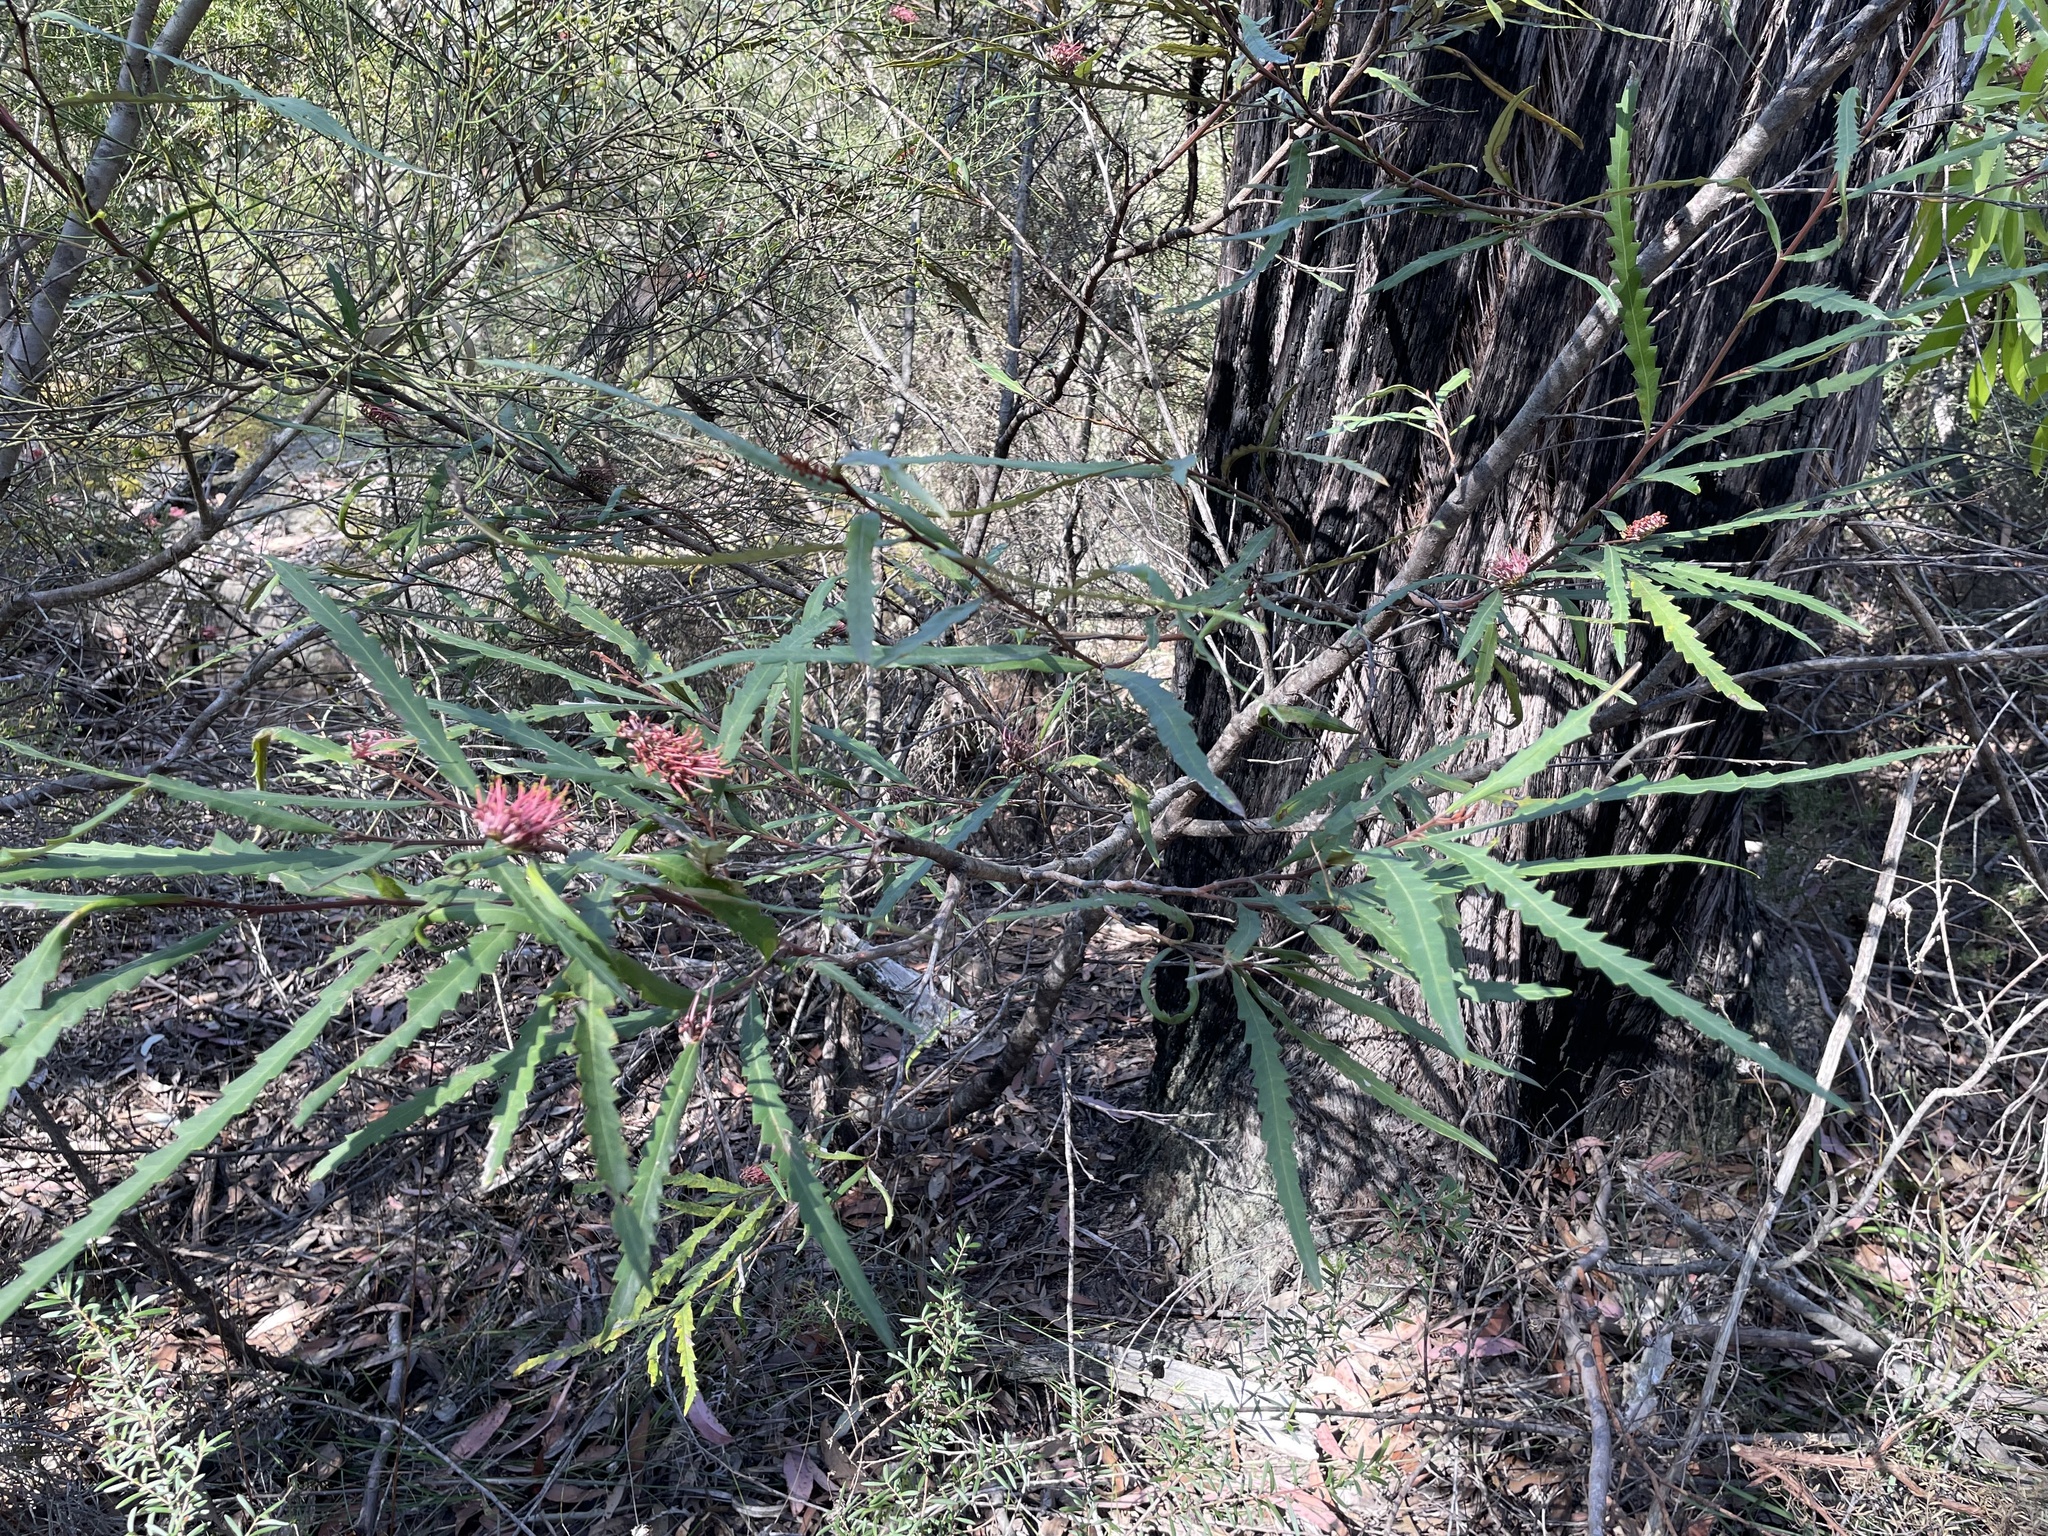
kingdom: Plantae
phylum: Tracheophyta
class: Magnoliopsida
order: Proteales
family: Proteaceae
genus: Grevillea
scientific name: Grevillea longifolia
